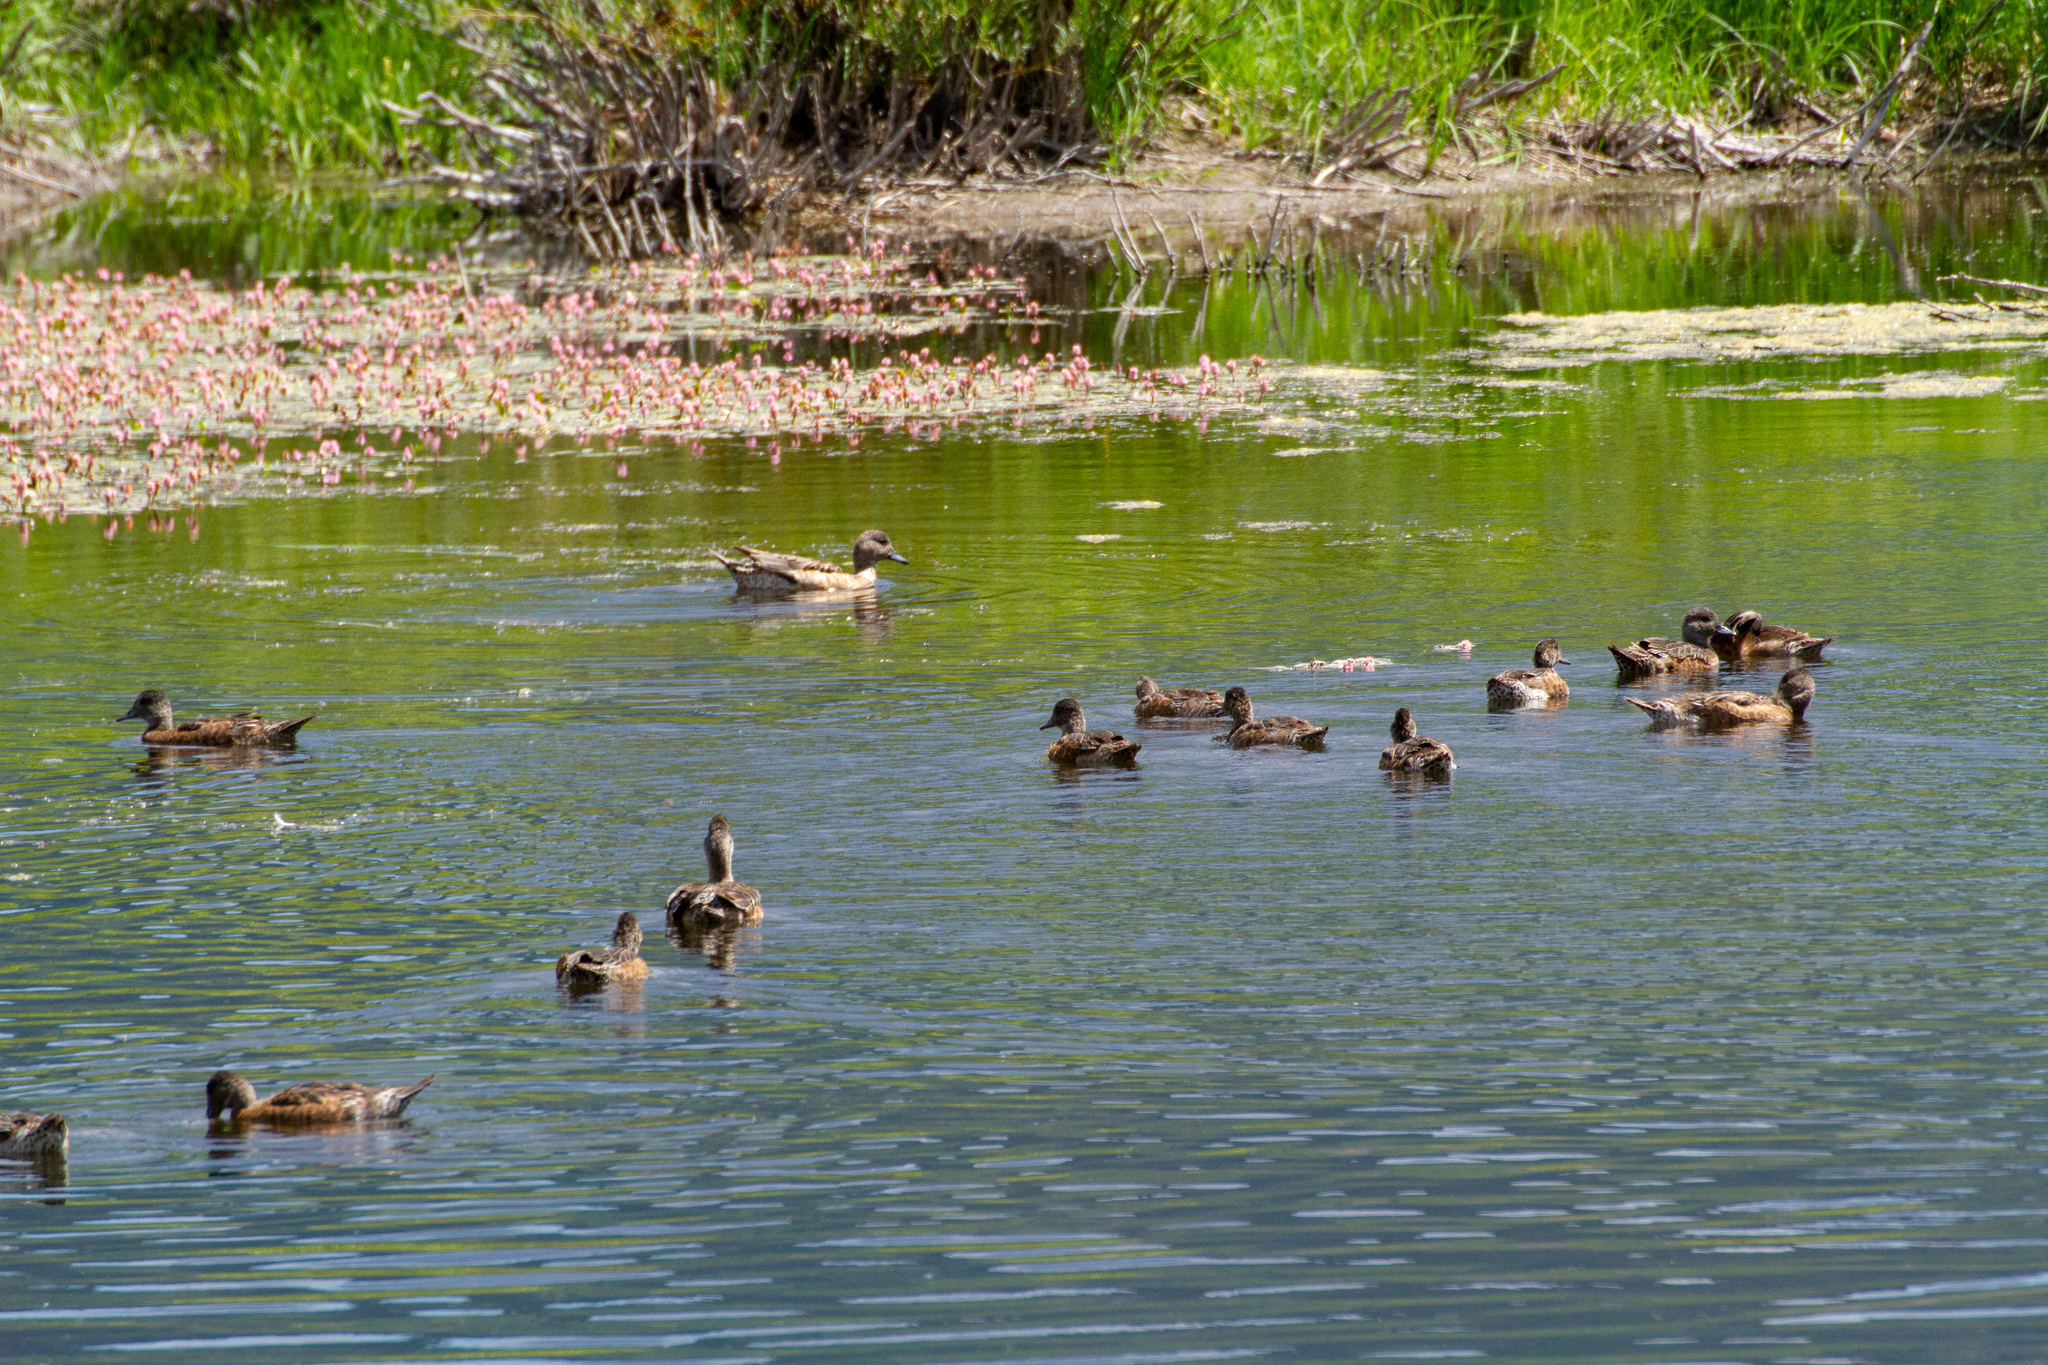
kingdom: Animalia
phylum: Chordata
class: Aves
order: Anseriformes
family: Anatidae
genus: Mareca
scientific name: Mareca americana
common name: American wigeon
